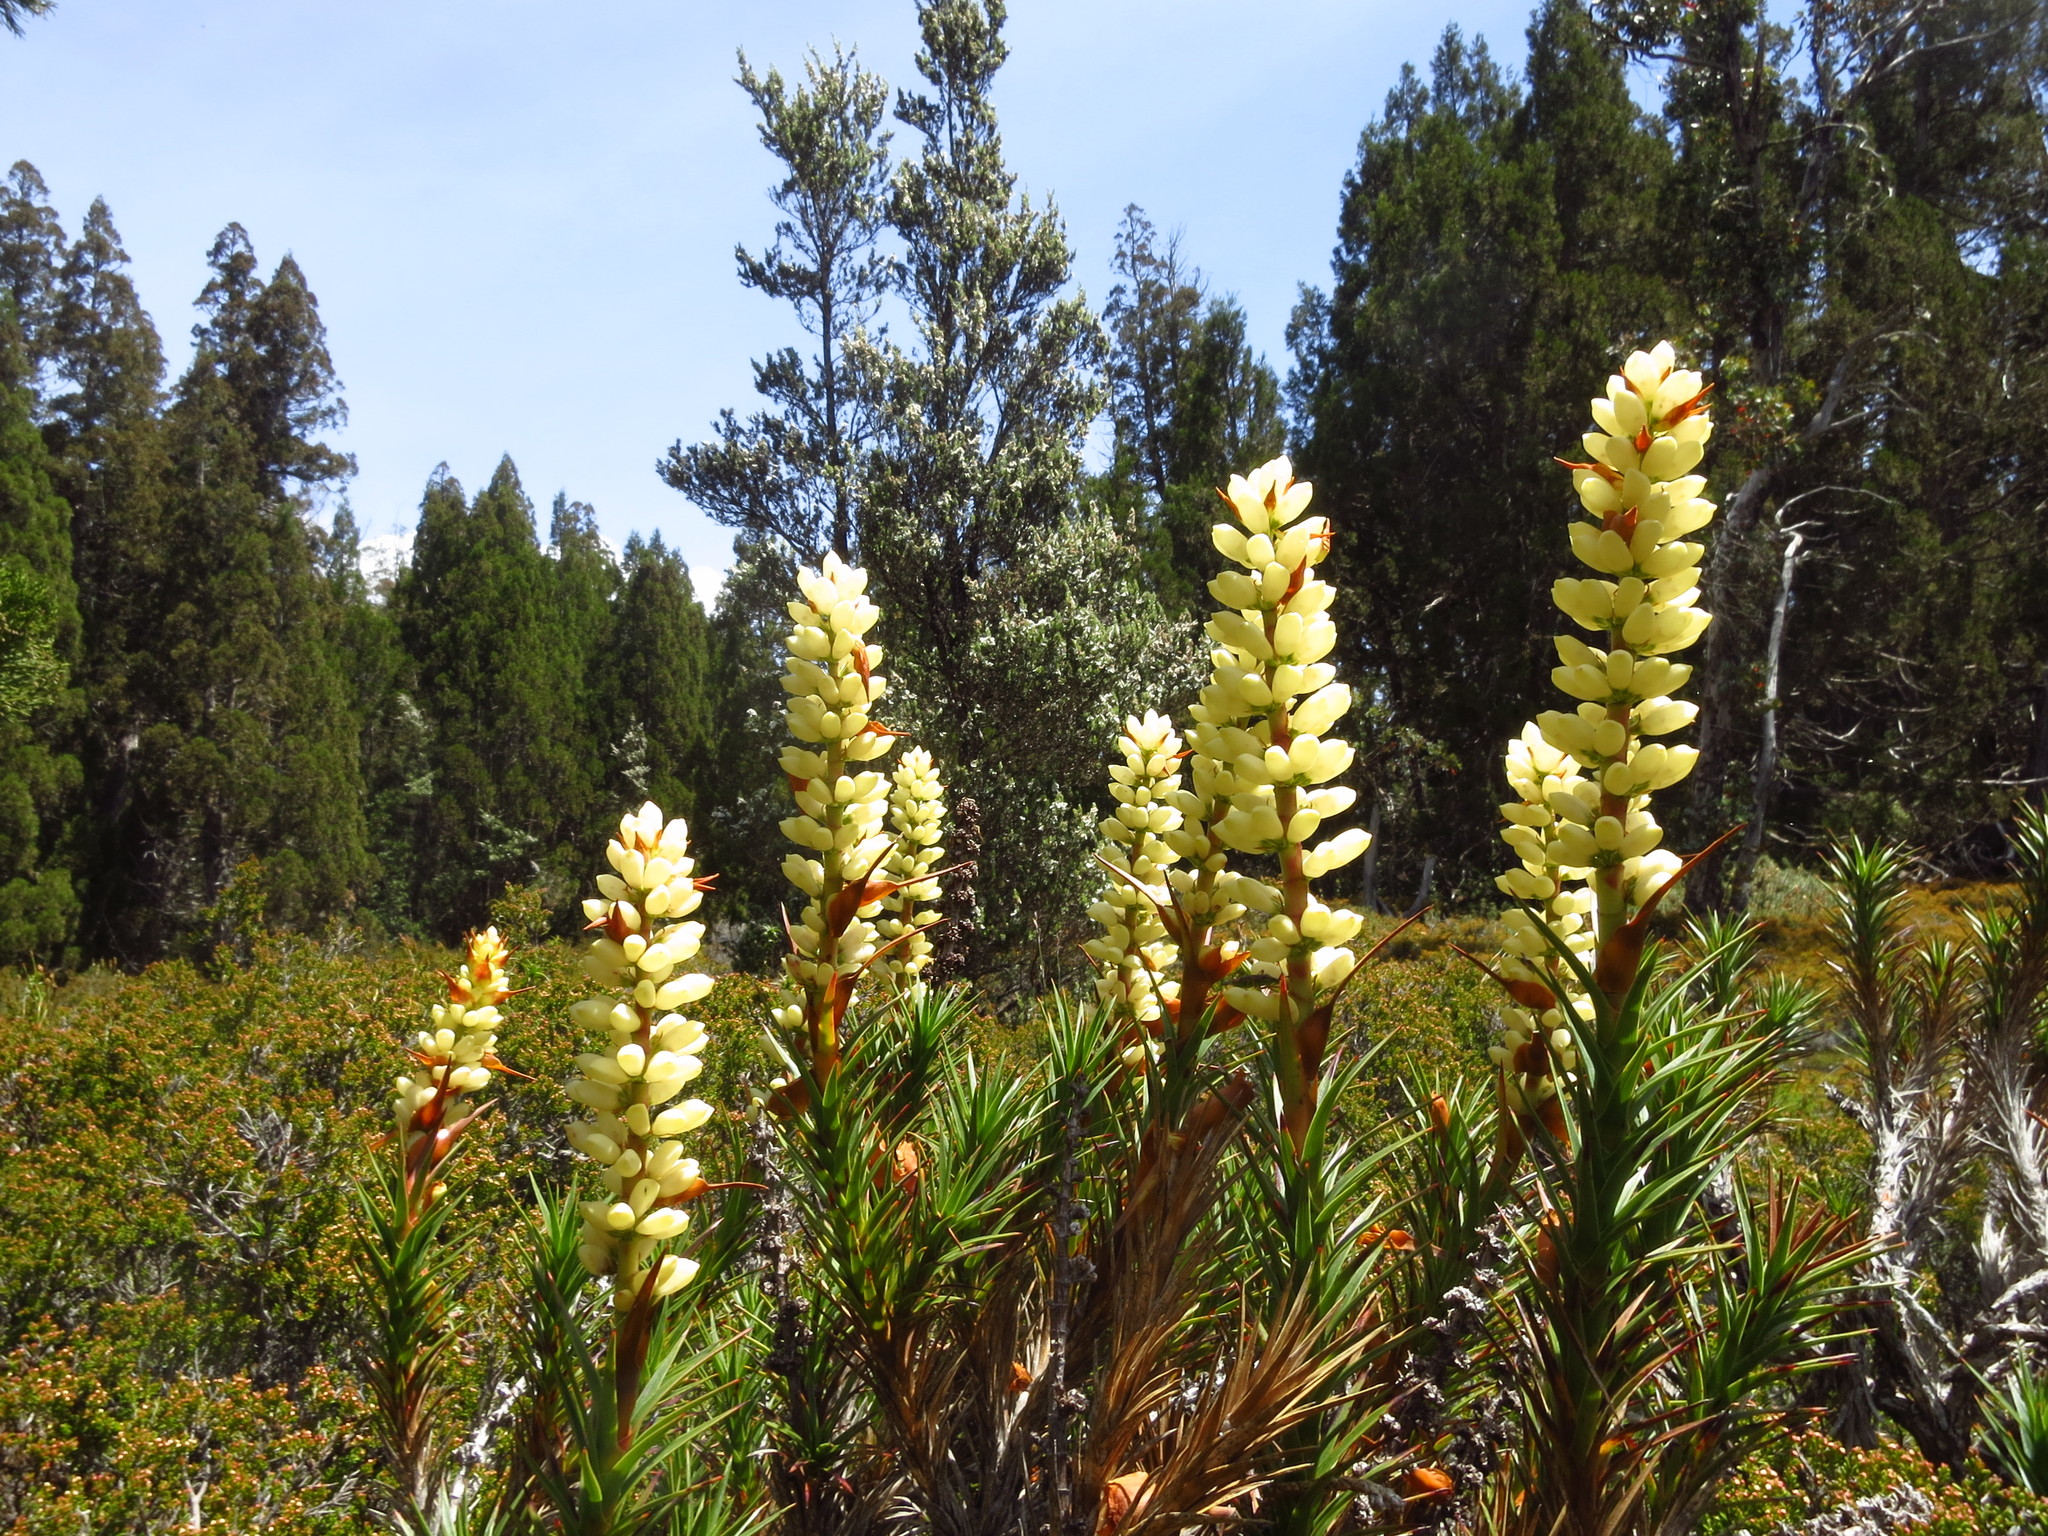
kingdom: Plantae
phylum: Tracheophyta
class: Magnoliopsida
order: Ericales
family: Ericaceae
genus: Dracophyllum
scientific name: Dracophyllum persistentifolium
